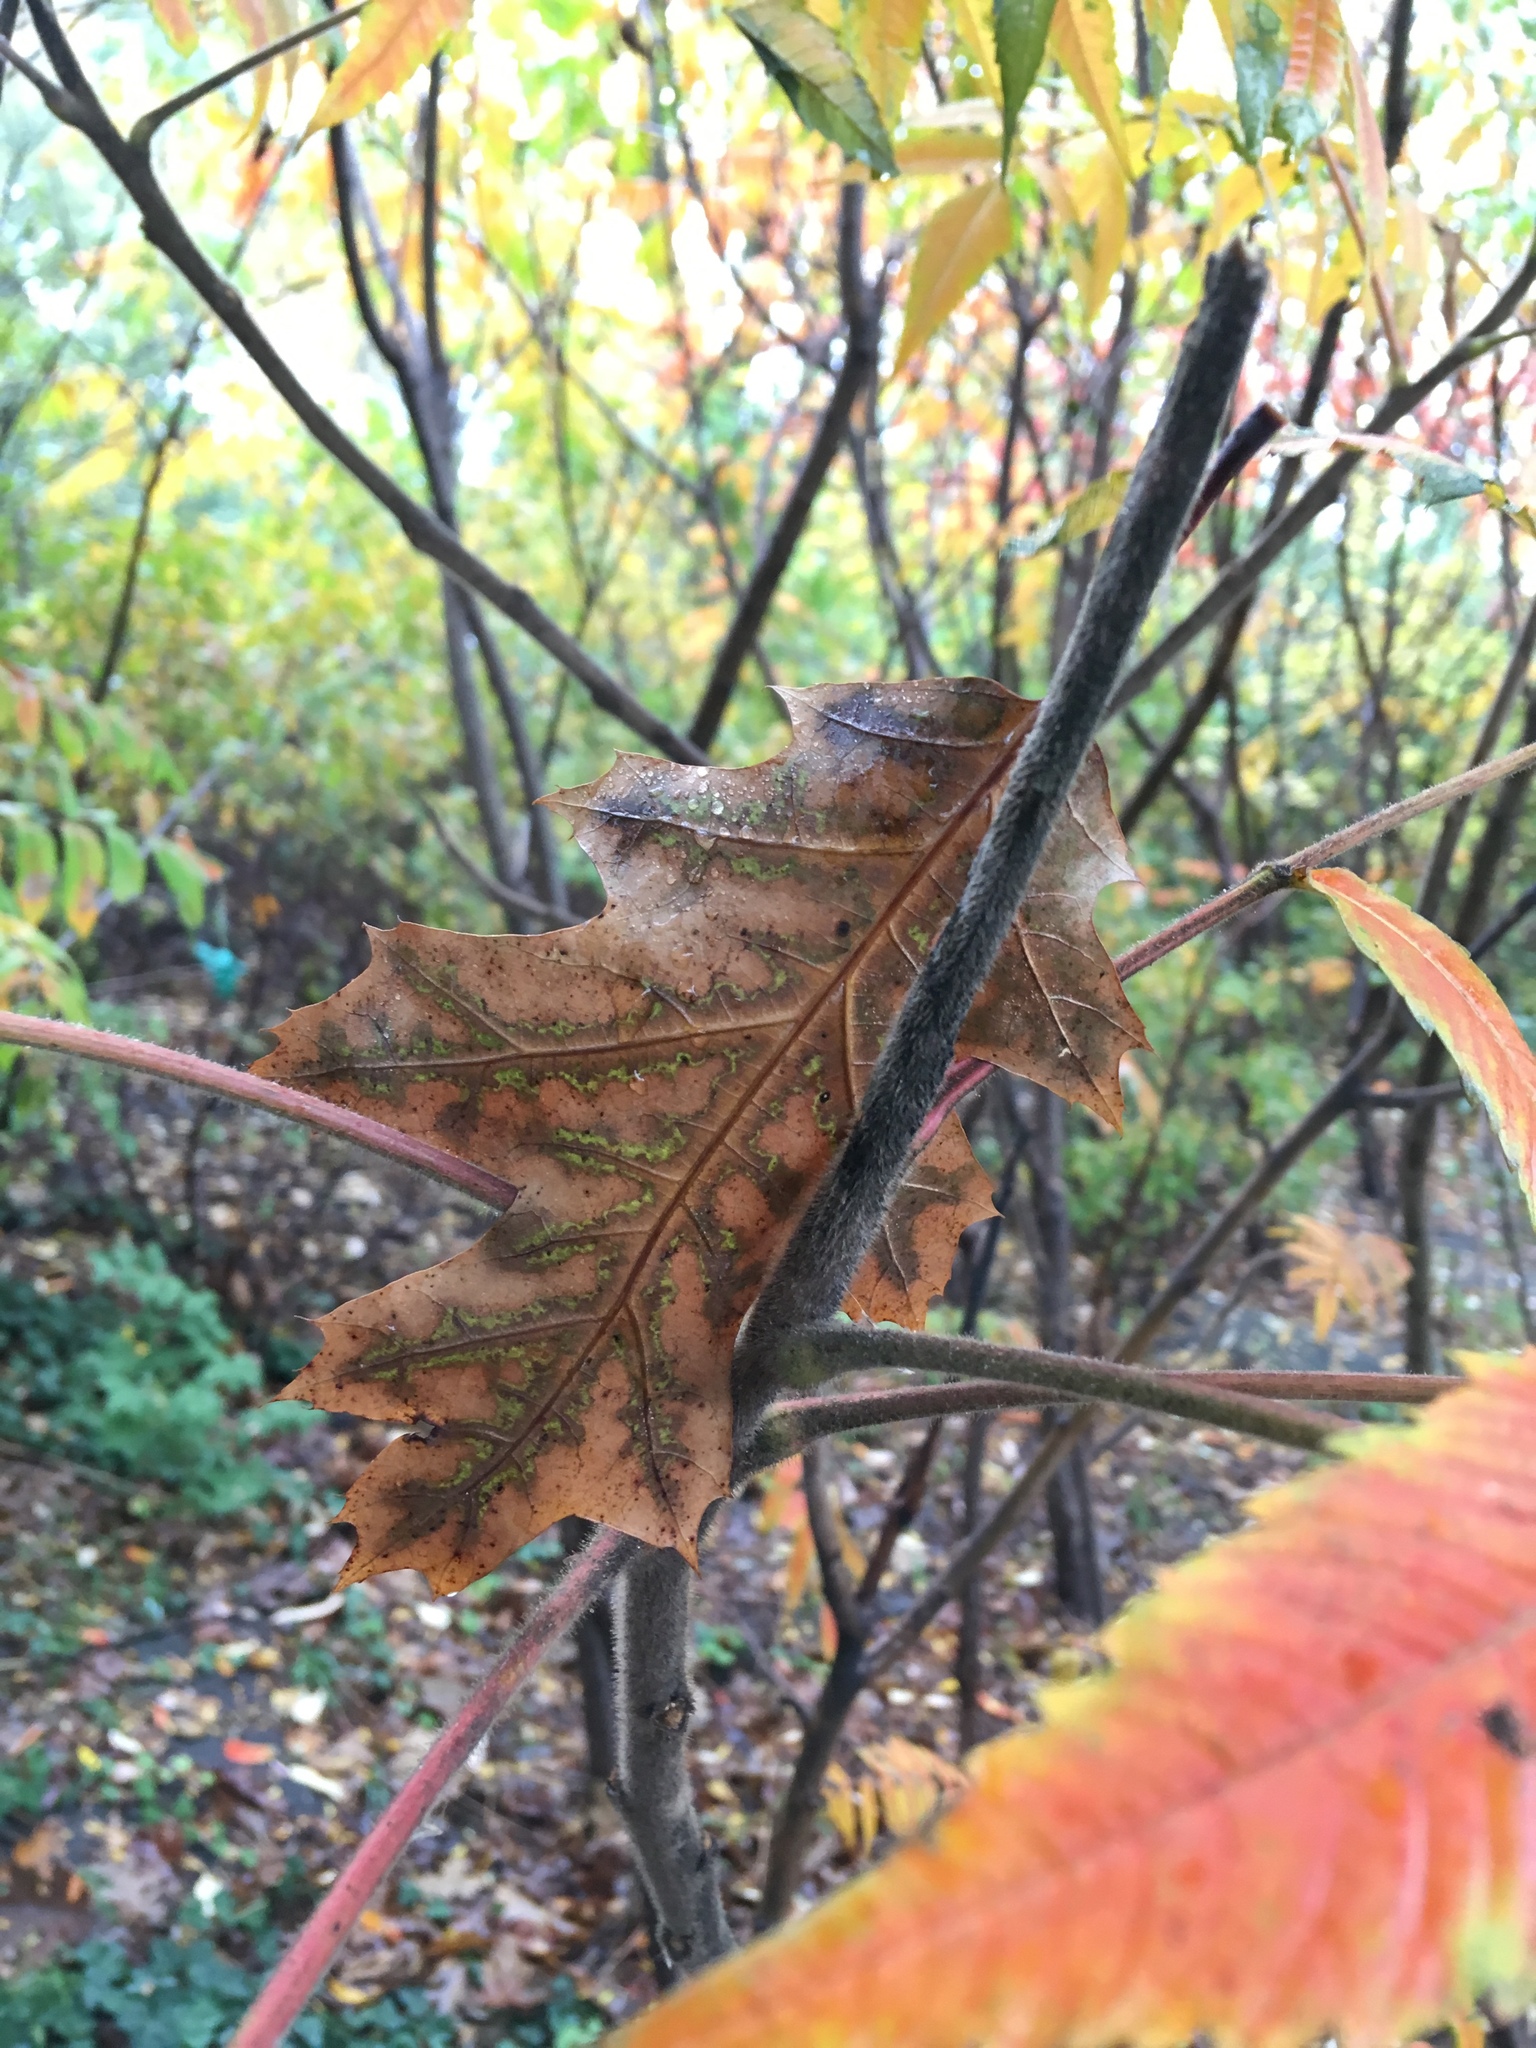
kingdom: Plantae
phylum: Tracheophyta
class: Magnoliopsida
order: Sapindales
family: Anacardiaceae
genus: Rhus
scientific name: Rhus typhina
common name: Staghorn sumac
